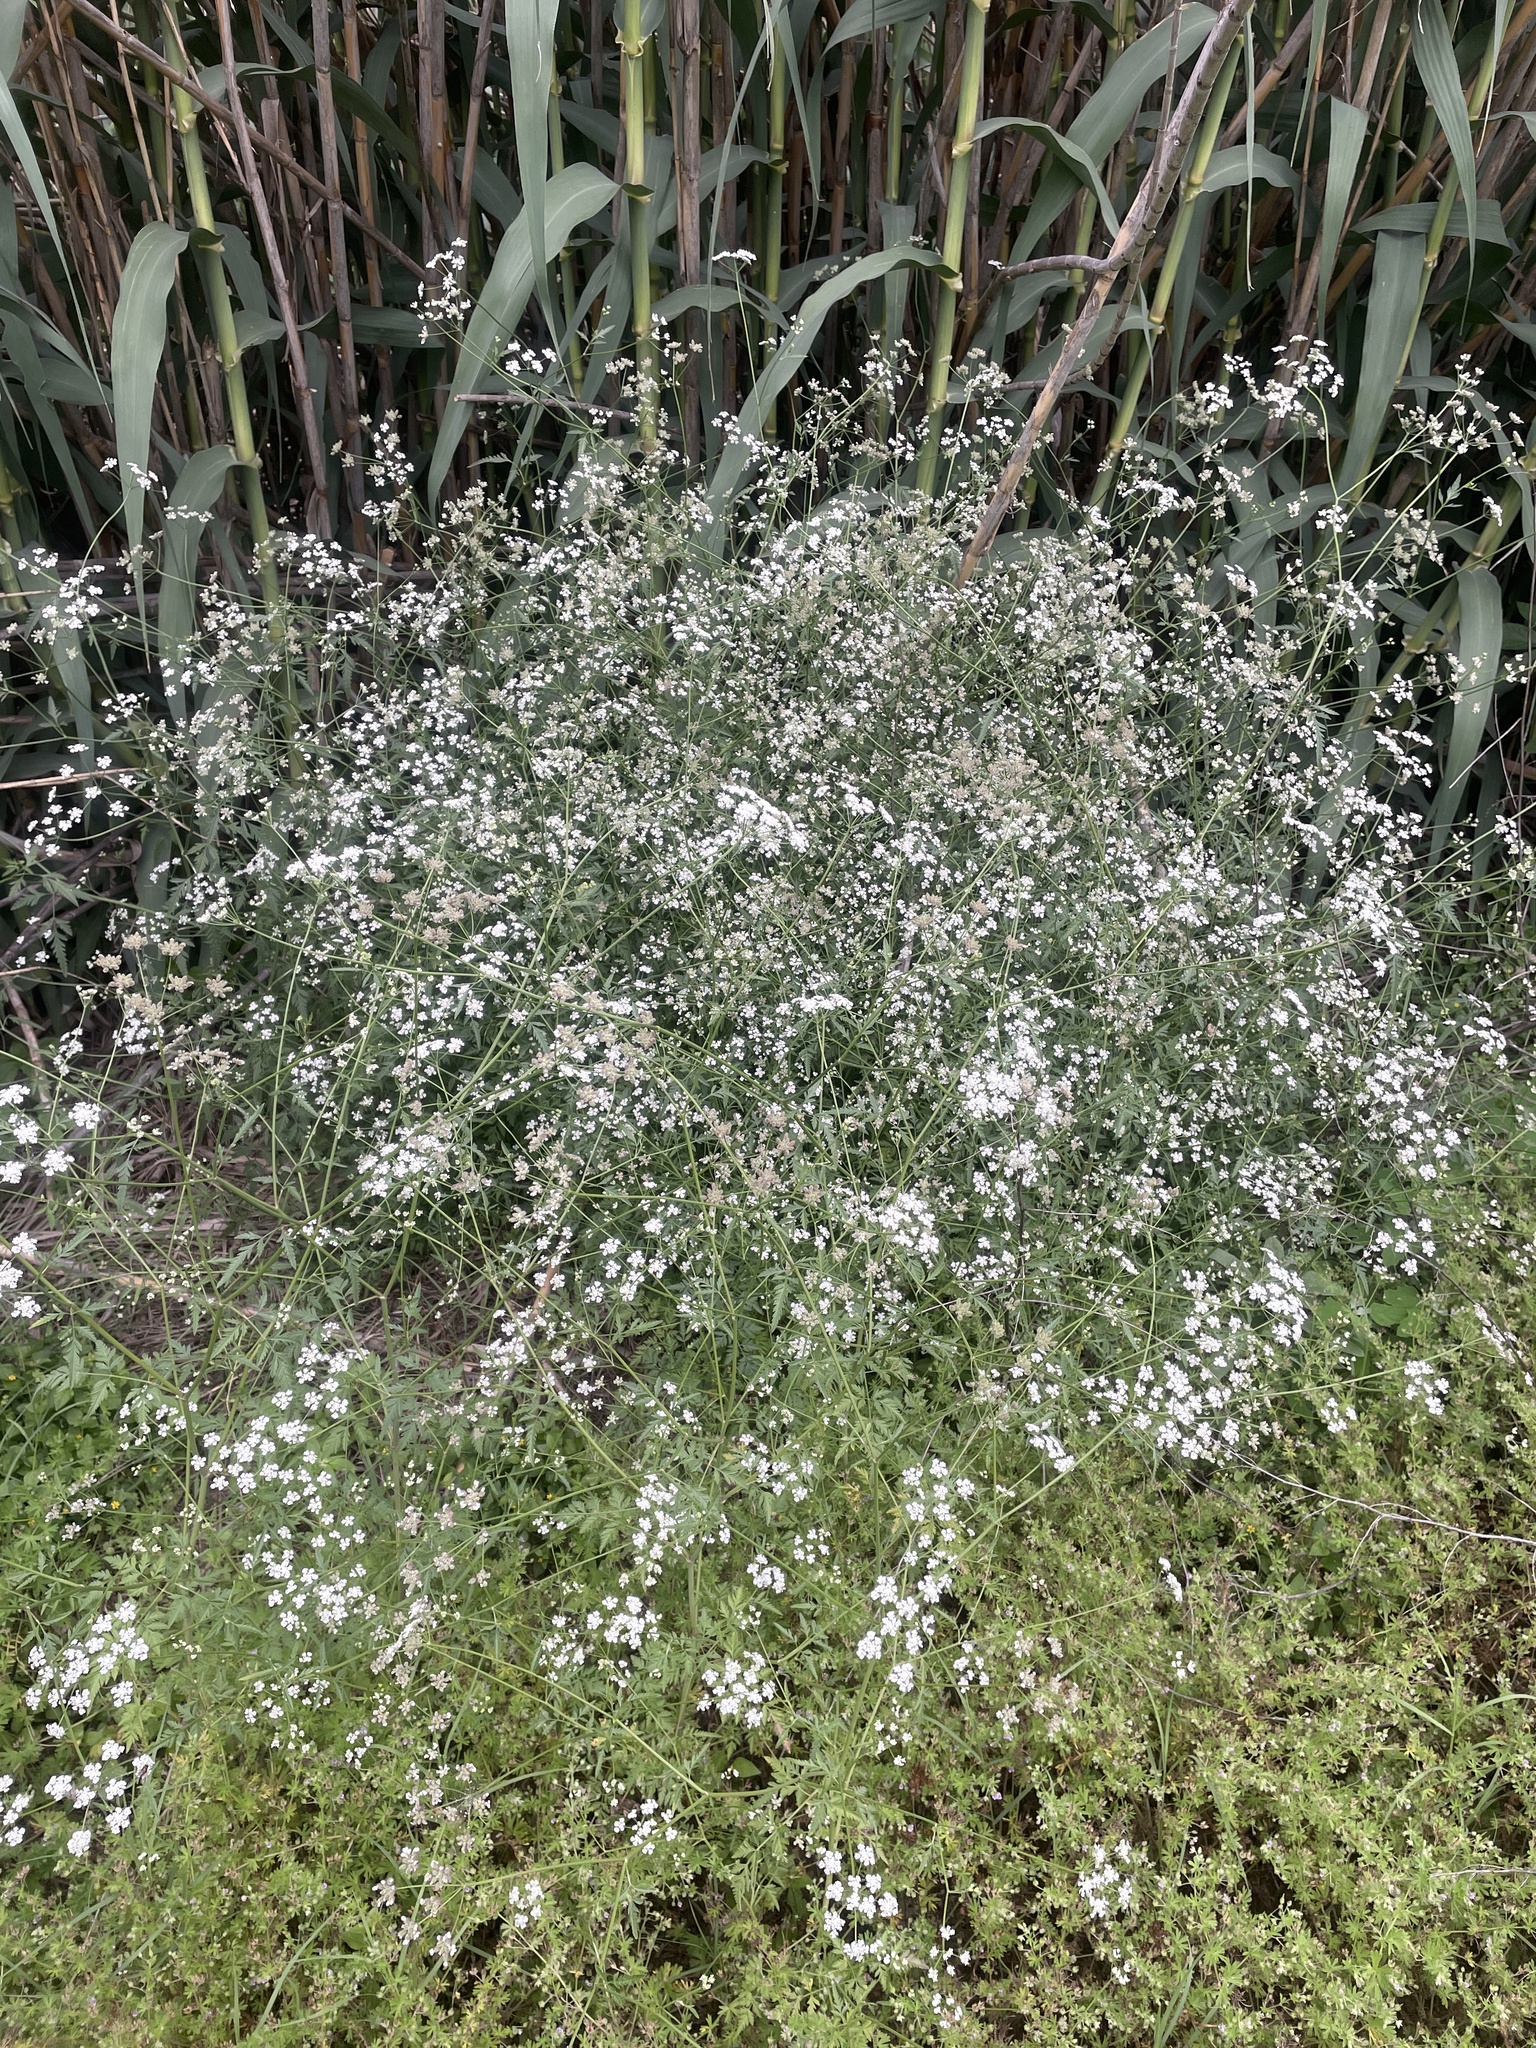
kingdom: Plantae
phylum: Tracheophyta
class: Magnoliopsida
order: Apiales
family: Apiaceae
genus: Torilis
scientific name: Torilis arvensis
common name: Spreading hedge-parsley
